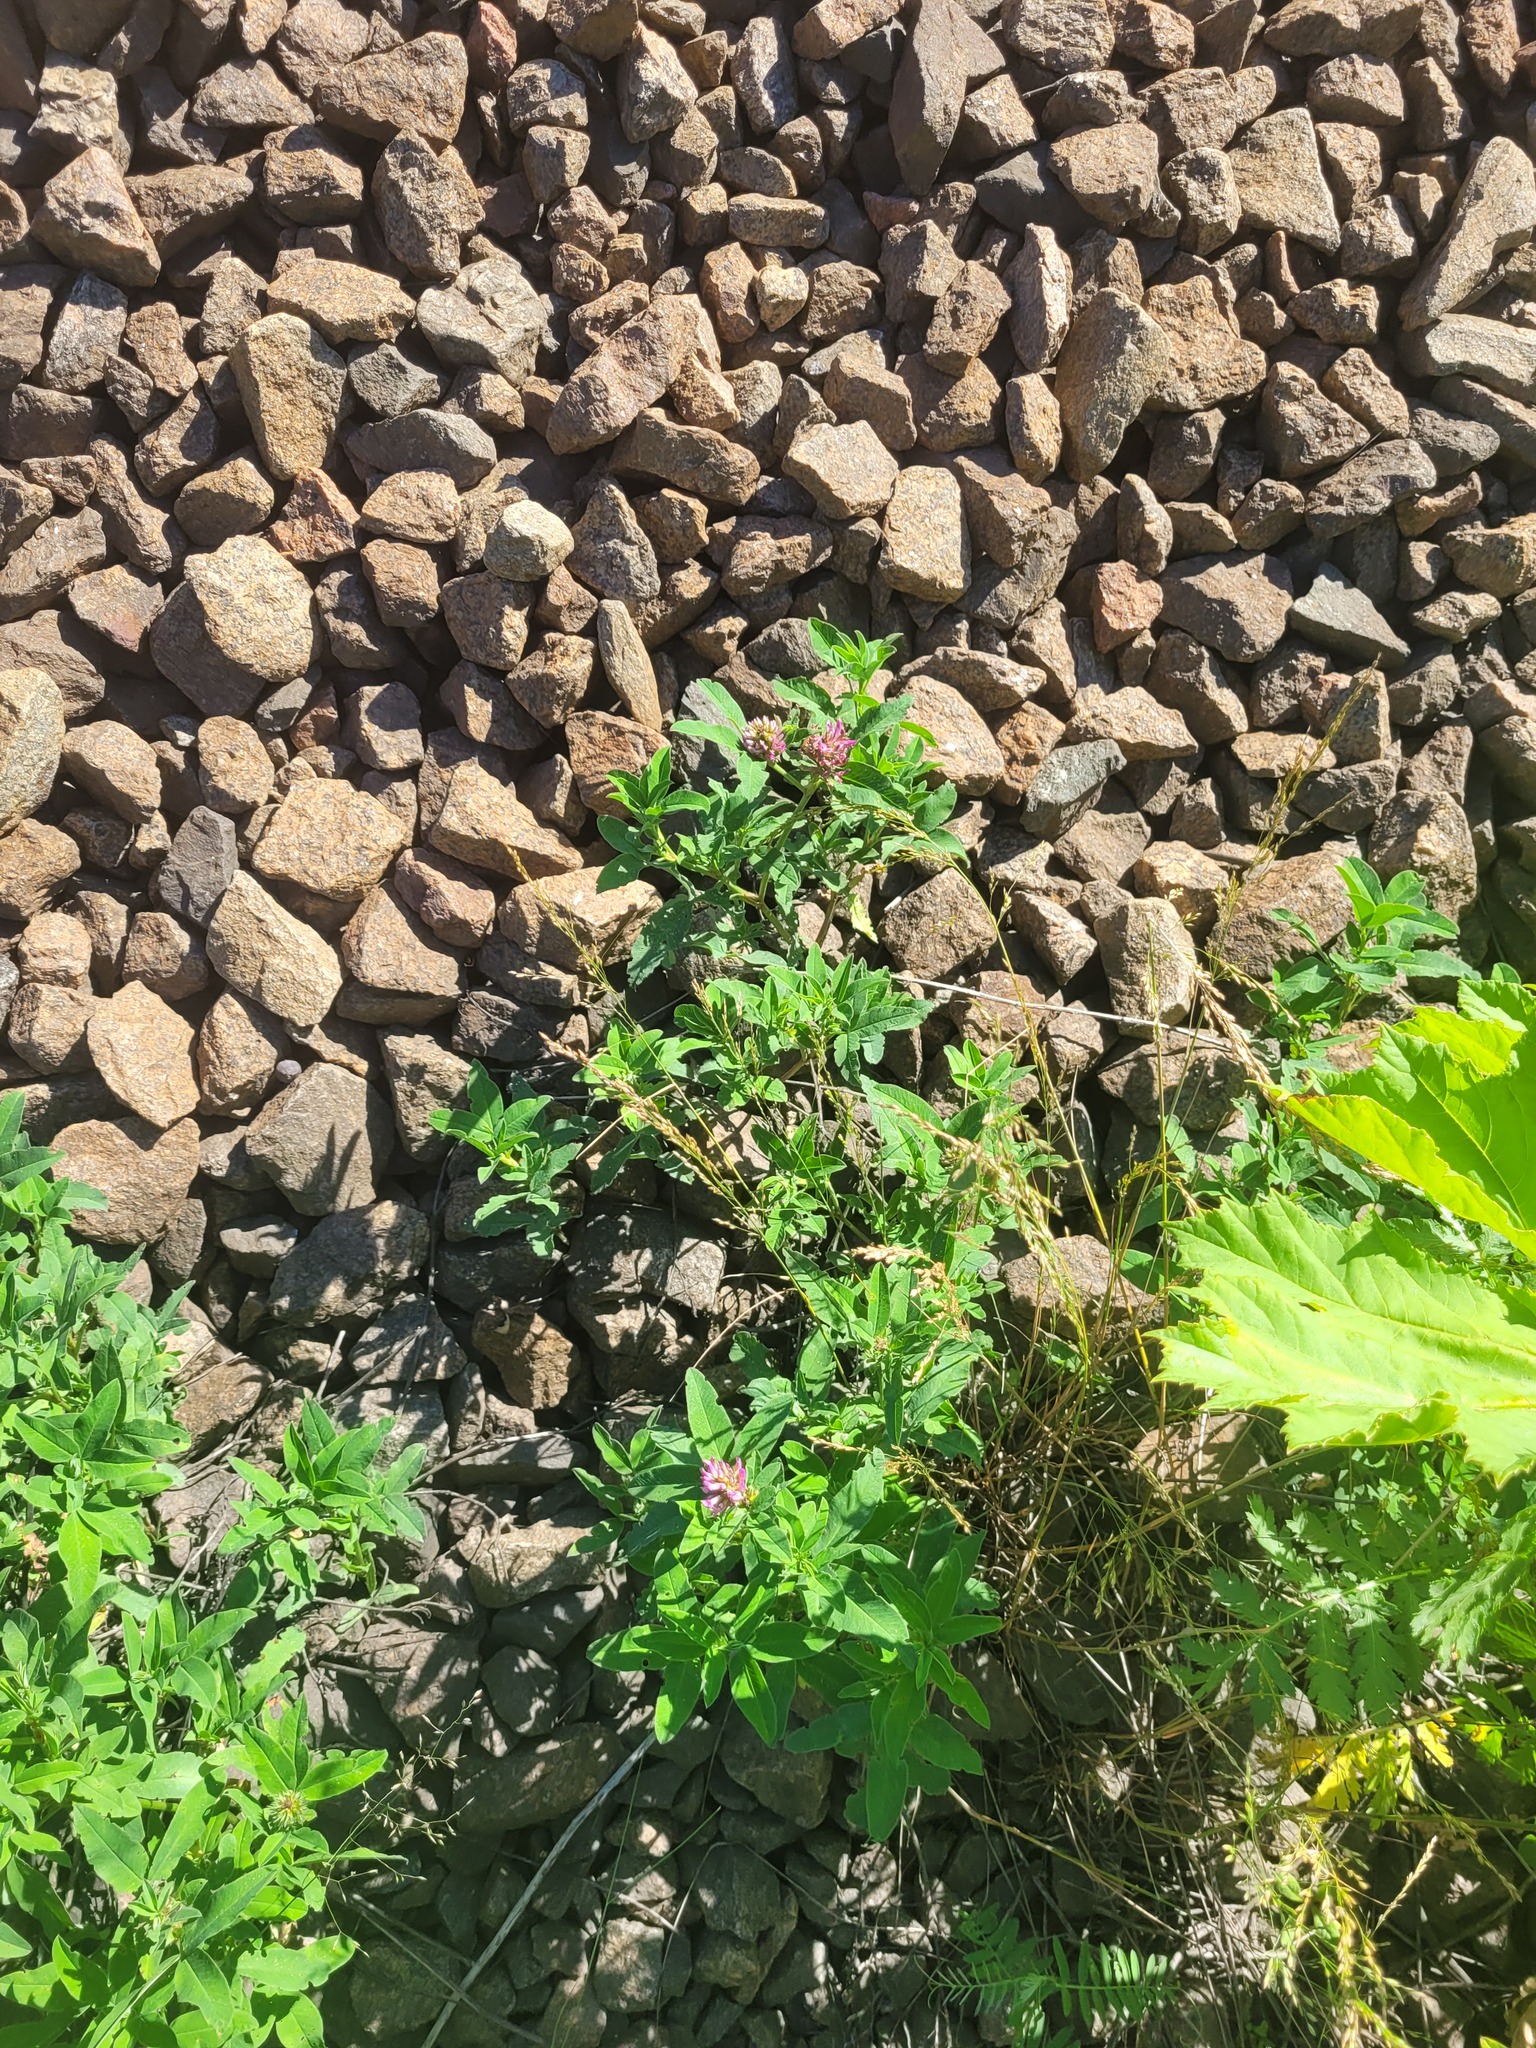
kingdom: Plantae
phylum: Tracheophyta
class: Magnoliopsida
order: Fabales
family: Fabaceae
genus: Trifolium
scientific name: Trifolium medium
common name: Zigzag clover
